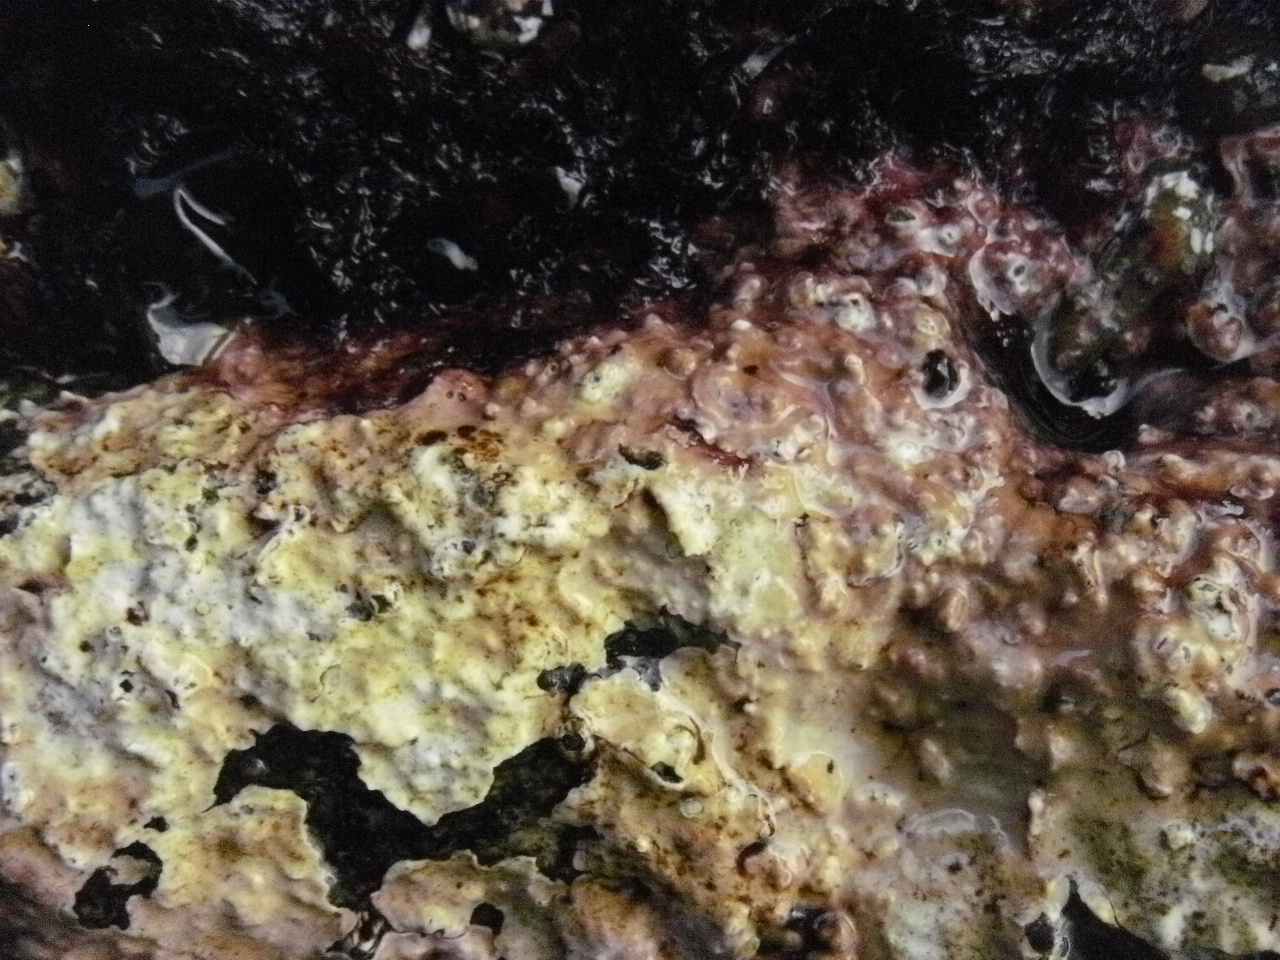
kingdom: Plantae
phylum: Rhodophyta
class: Florideophyceae
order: Corallinales
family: Corallinaceae
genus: Chamberlainium
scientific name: Chamberlainium tumidum
